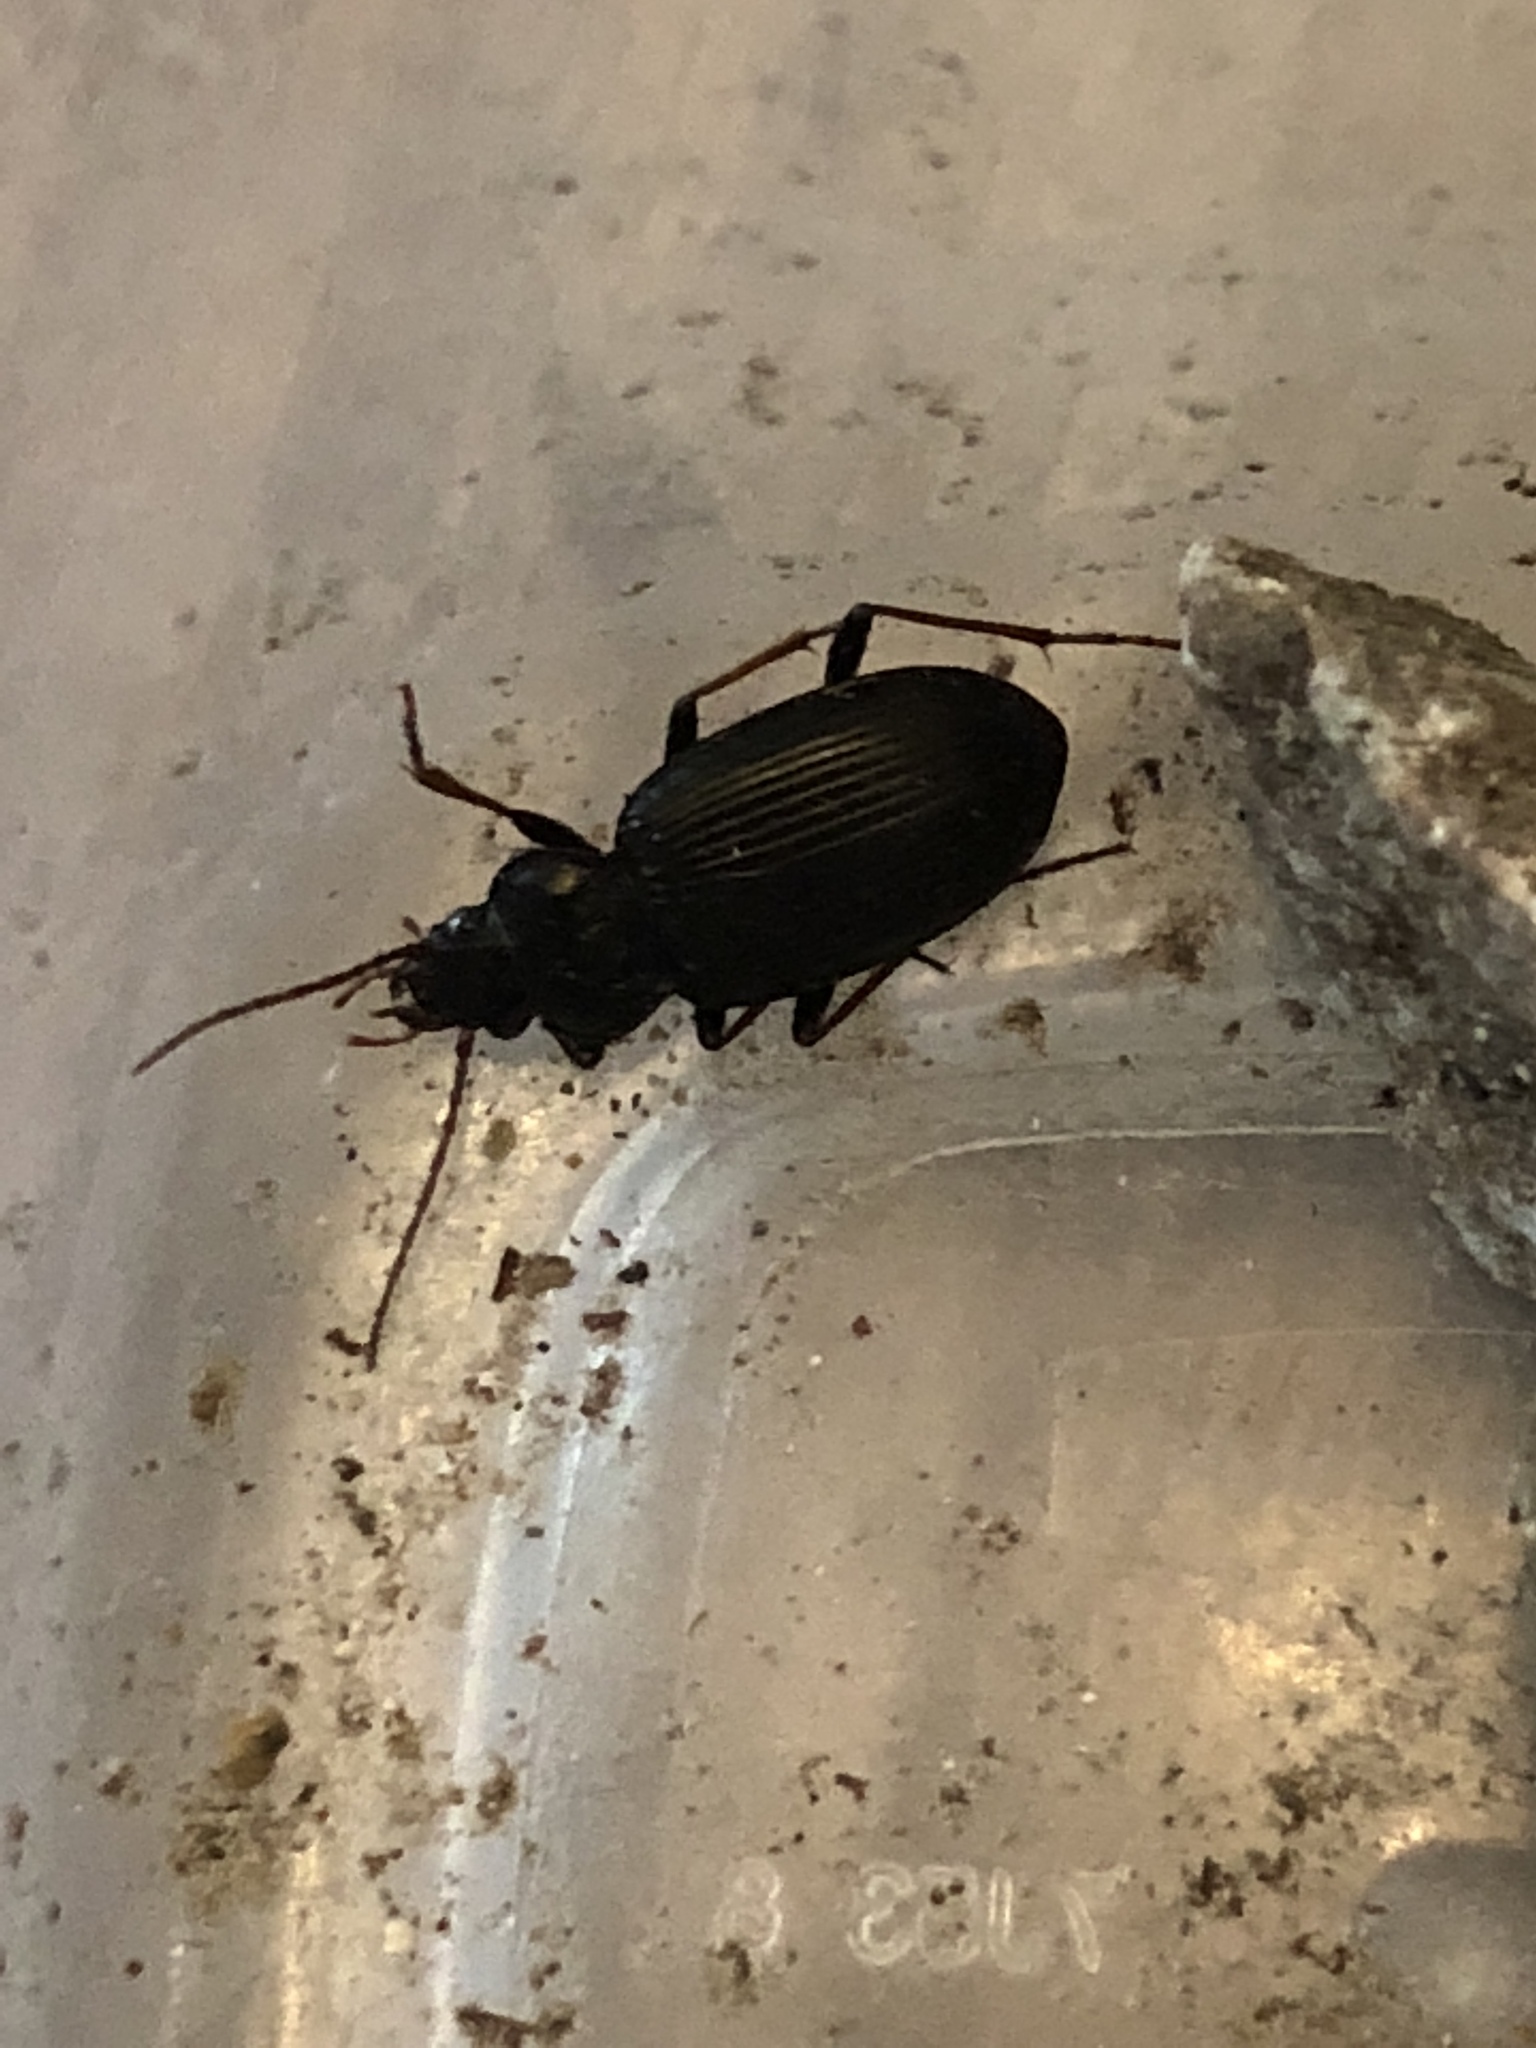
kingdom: Animalia
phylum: Arthropoda
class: Insecta
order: Coleoptera
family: Carabidae
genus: Nebria
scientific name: Nebria brevicollis
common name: Short-necked gazelle beetle
